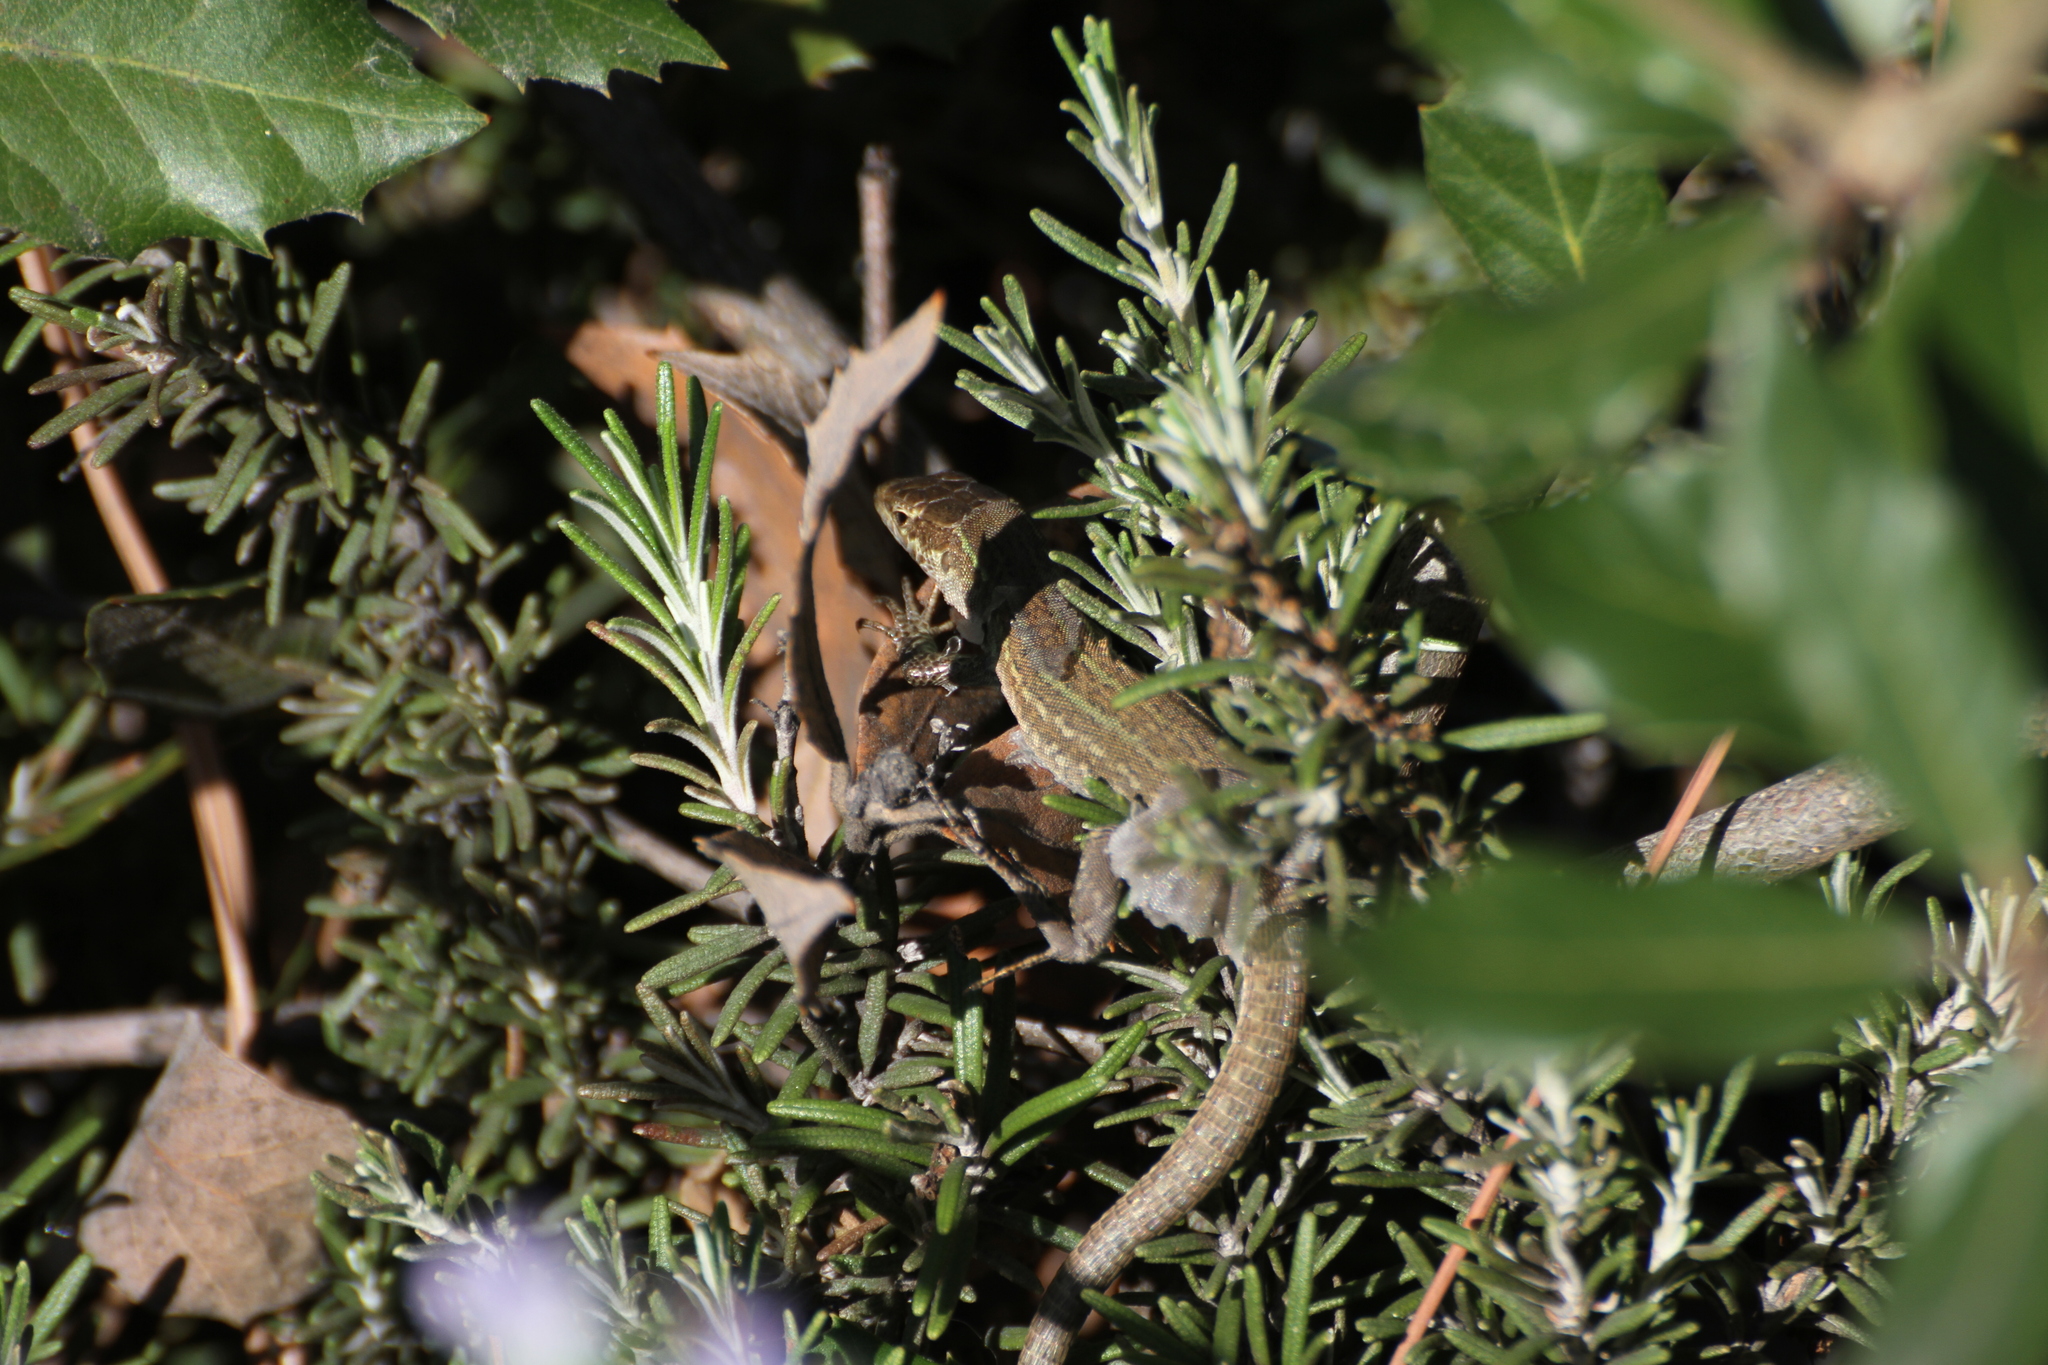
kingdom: Animalia
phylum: Chordata
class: Squamata
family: Lacertidae
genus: Podarcis
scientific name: Podarcis siculus
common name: Italian wall lizard
